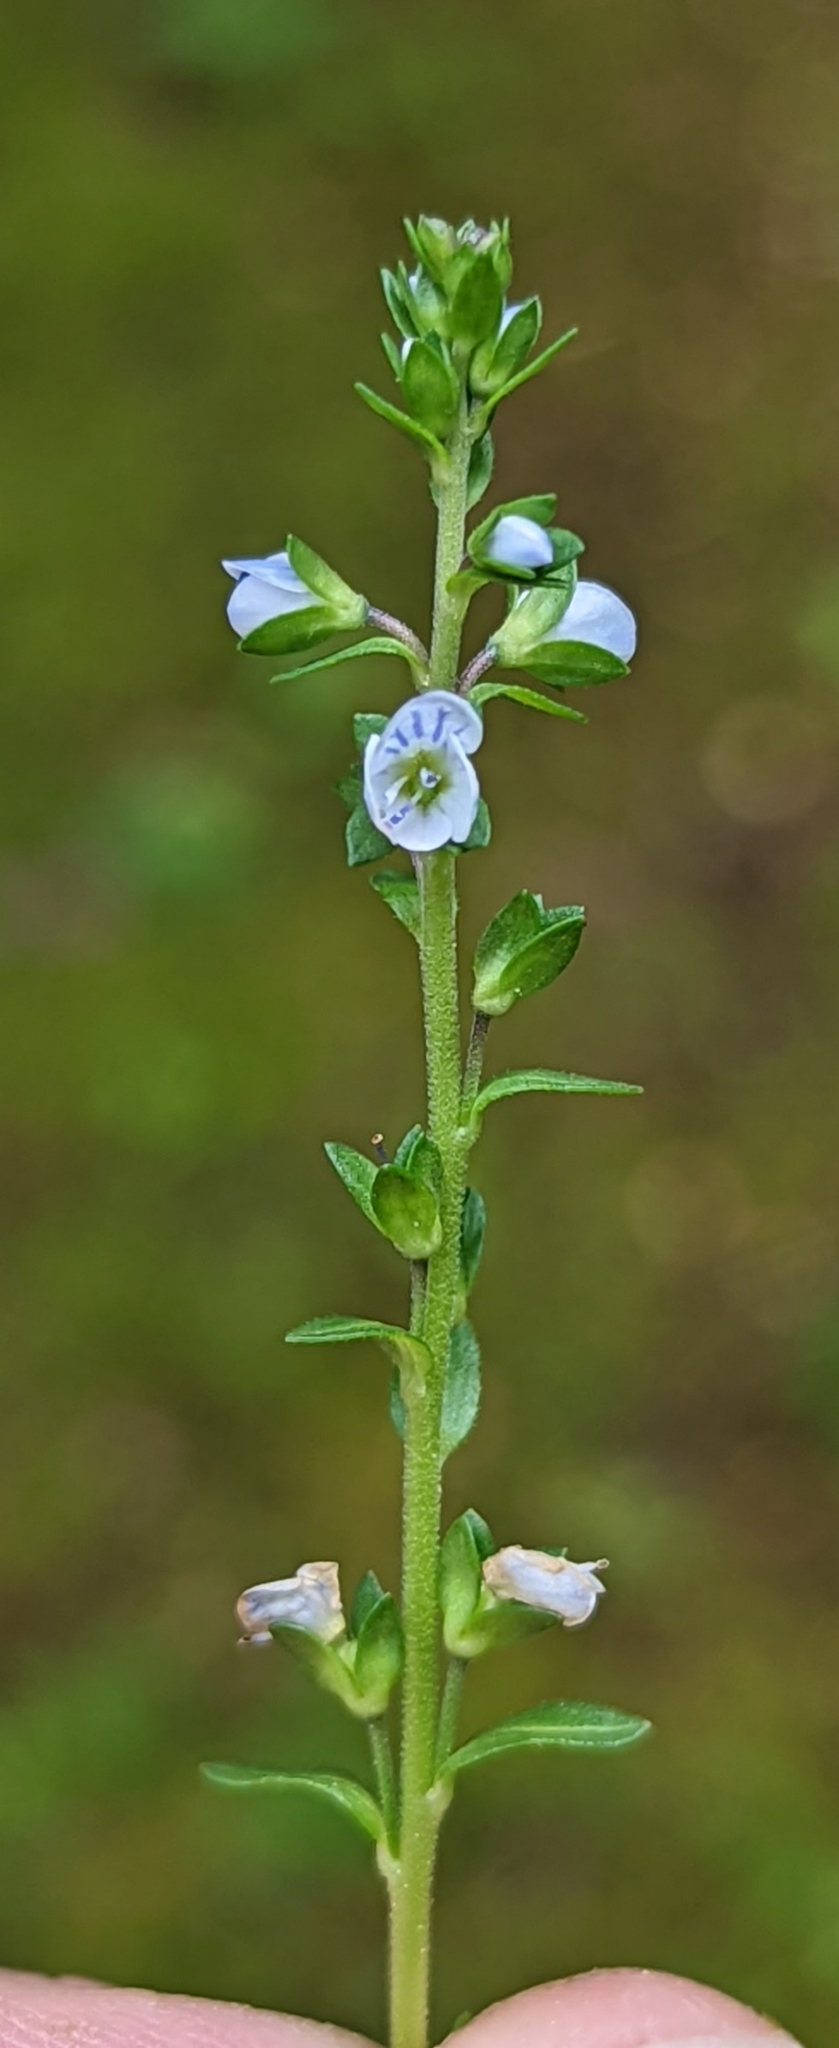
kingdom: Plantae
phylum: Tracheophyta
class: Magnoliopsida
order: Lamiales
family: Plantaginaceae
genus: Veronica
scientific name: Veronica serpyllifolia
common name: Thyme-leaved speedwell
